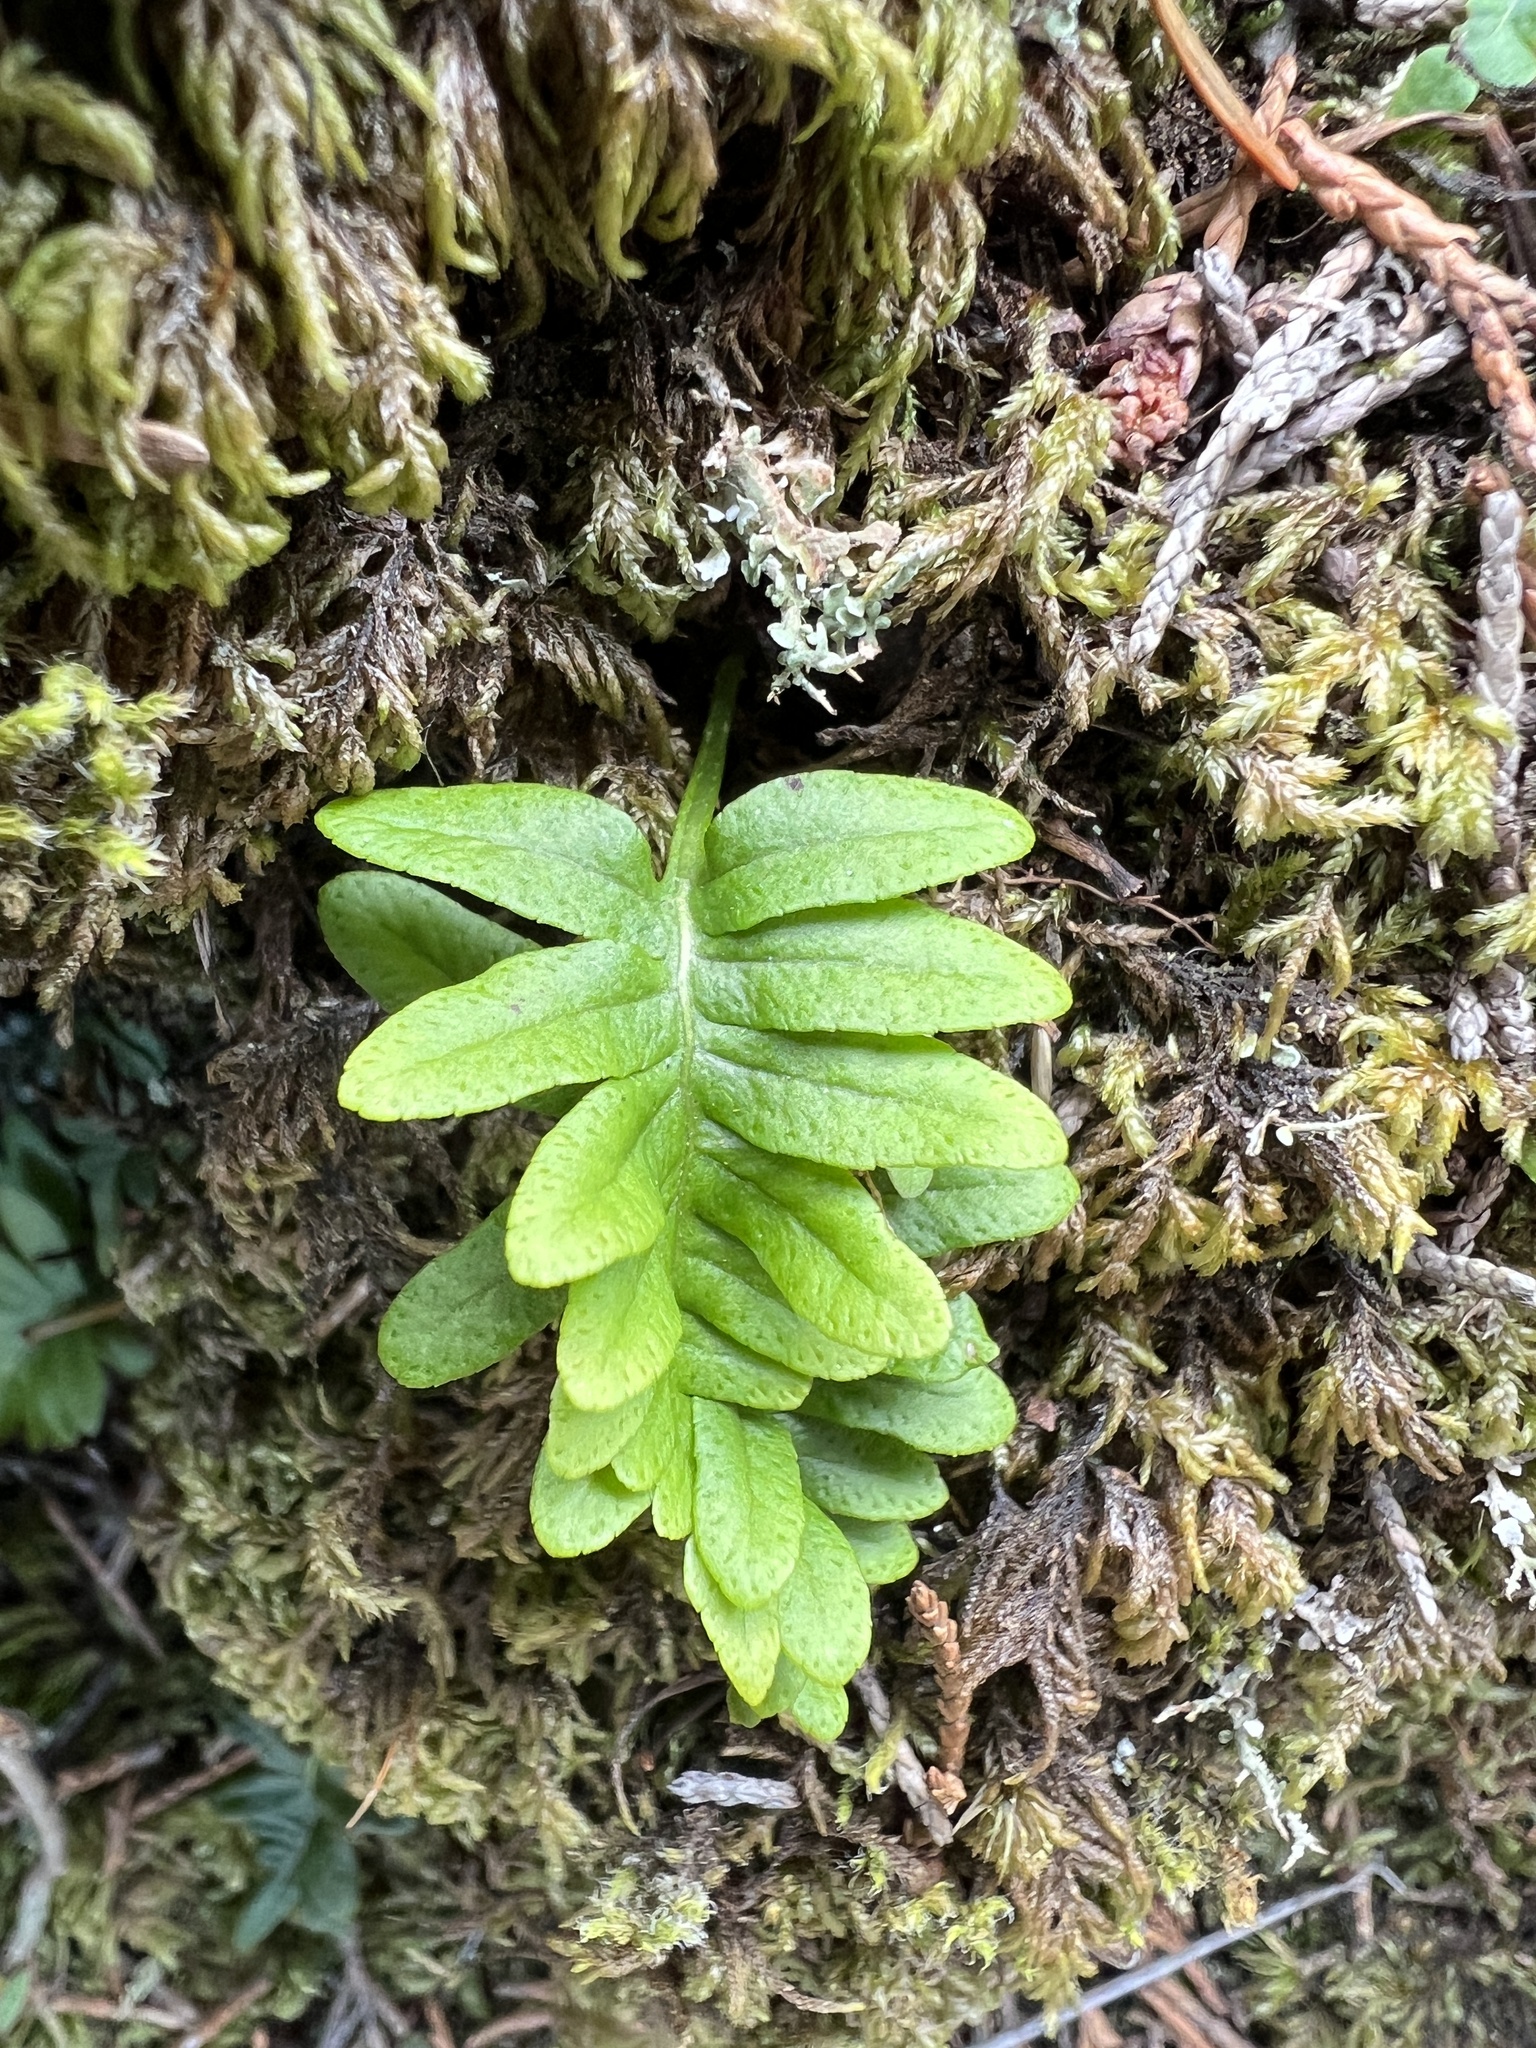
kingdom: Plantae
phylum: Tracheophyta
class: Polypodiopsida
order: Polypodiales
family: Polypodiaceae
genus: Polypodium
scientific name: Polypodium glycyrrhiza
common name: Licorice fern
